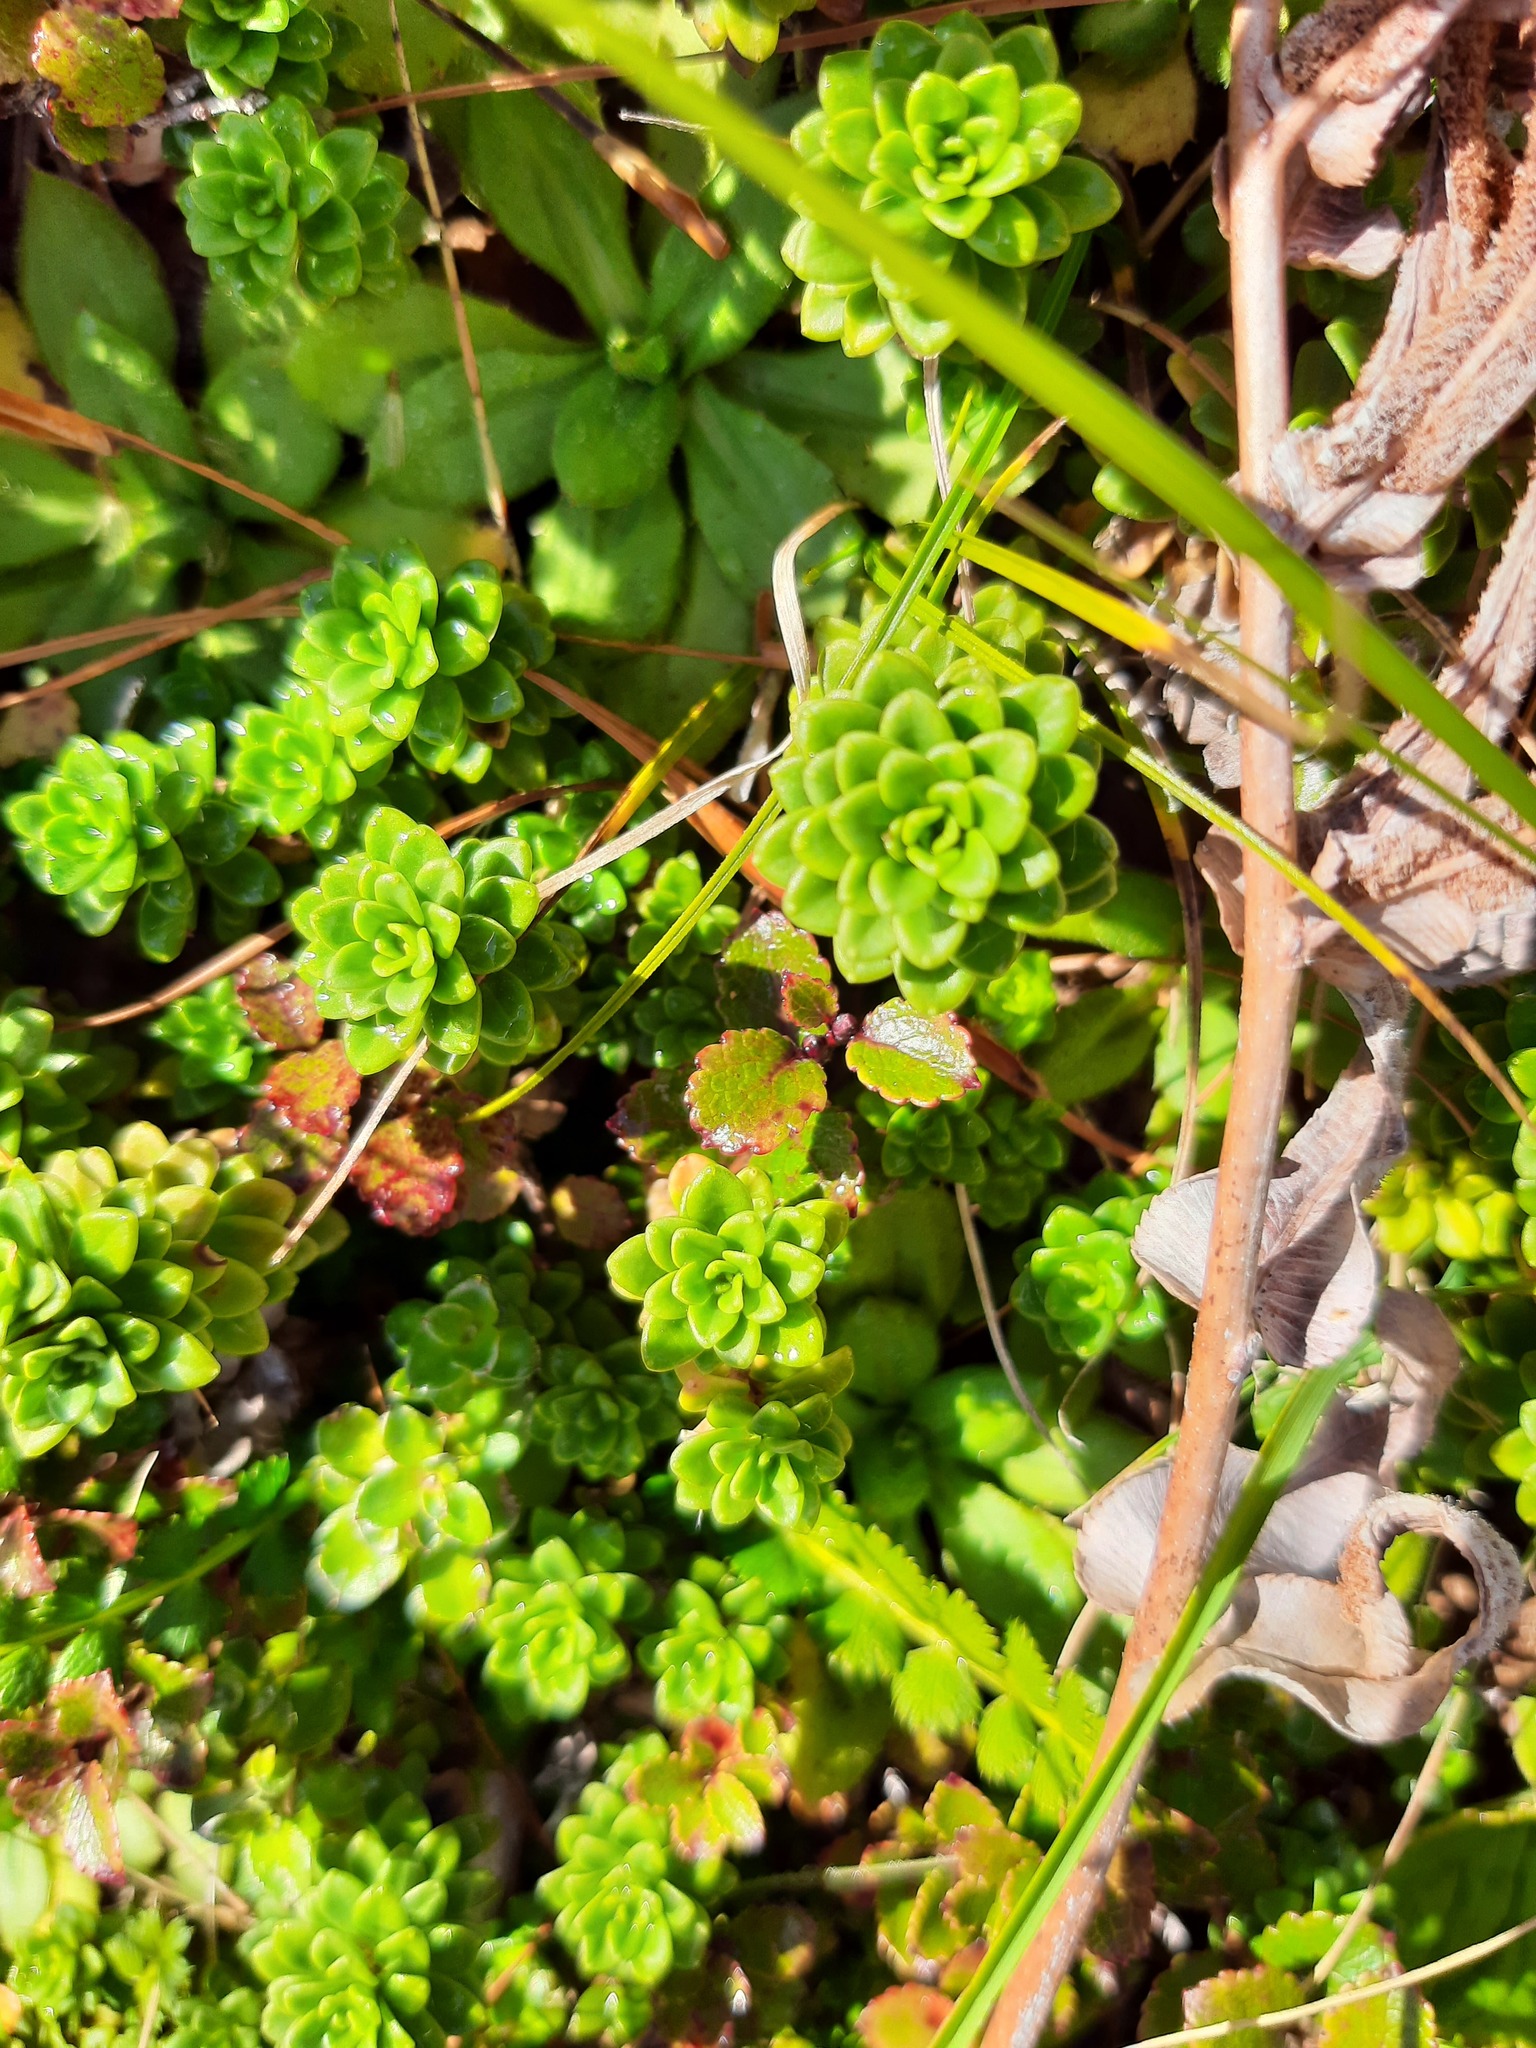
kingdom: Plantae
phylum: Tracheophyta
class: Magnoliopsida
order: Asterales
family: Stylidiaceae
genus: Forstera
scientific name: Forstera tenella
